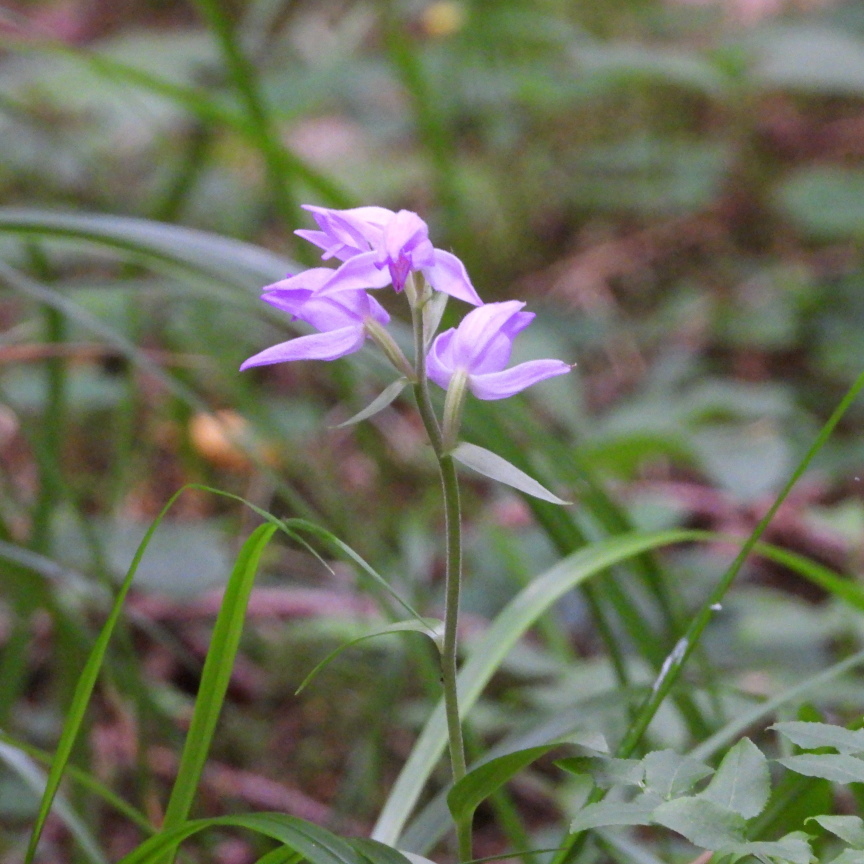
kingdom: Plantae
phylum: Tracheophyta
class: Liliopsida
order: Asparagales
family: Orchidaceae
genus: Cephalanthera
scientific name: Cephalanthera rubra
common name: Red helleborine
